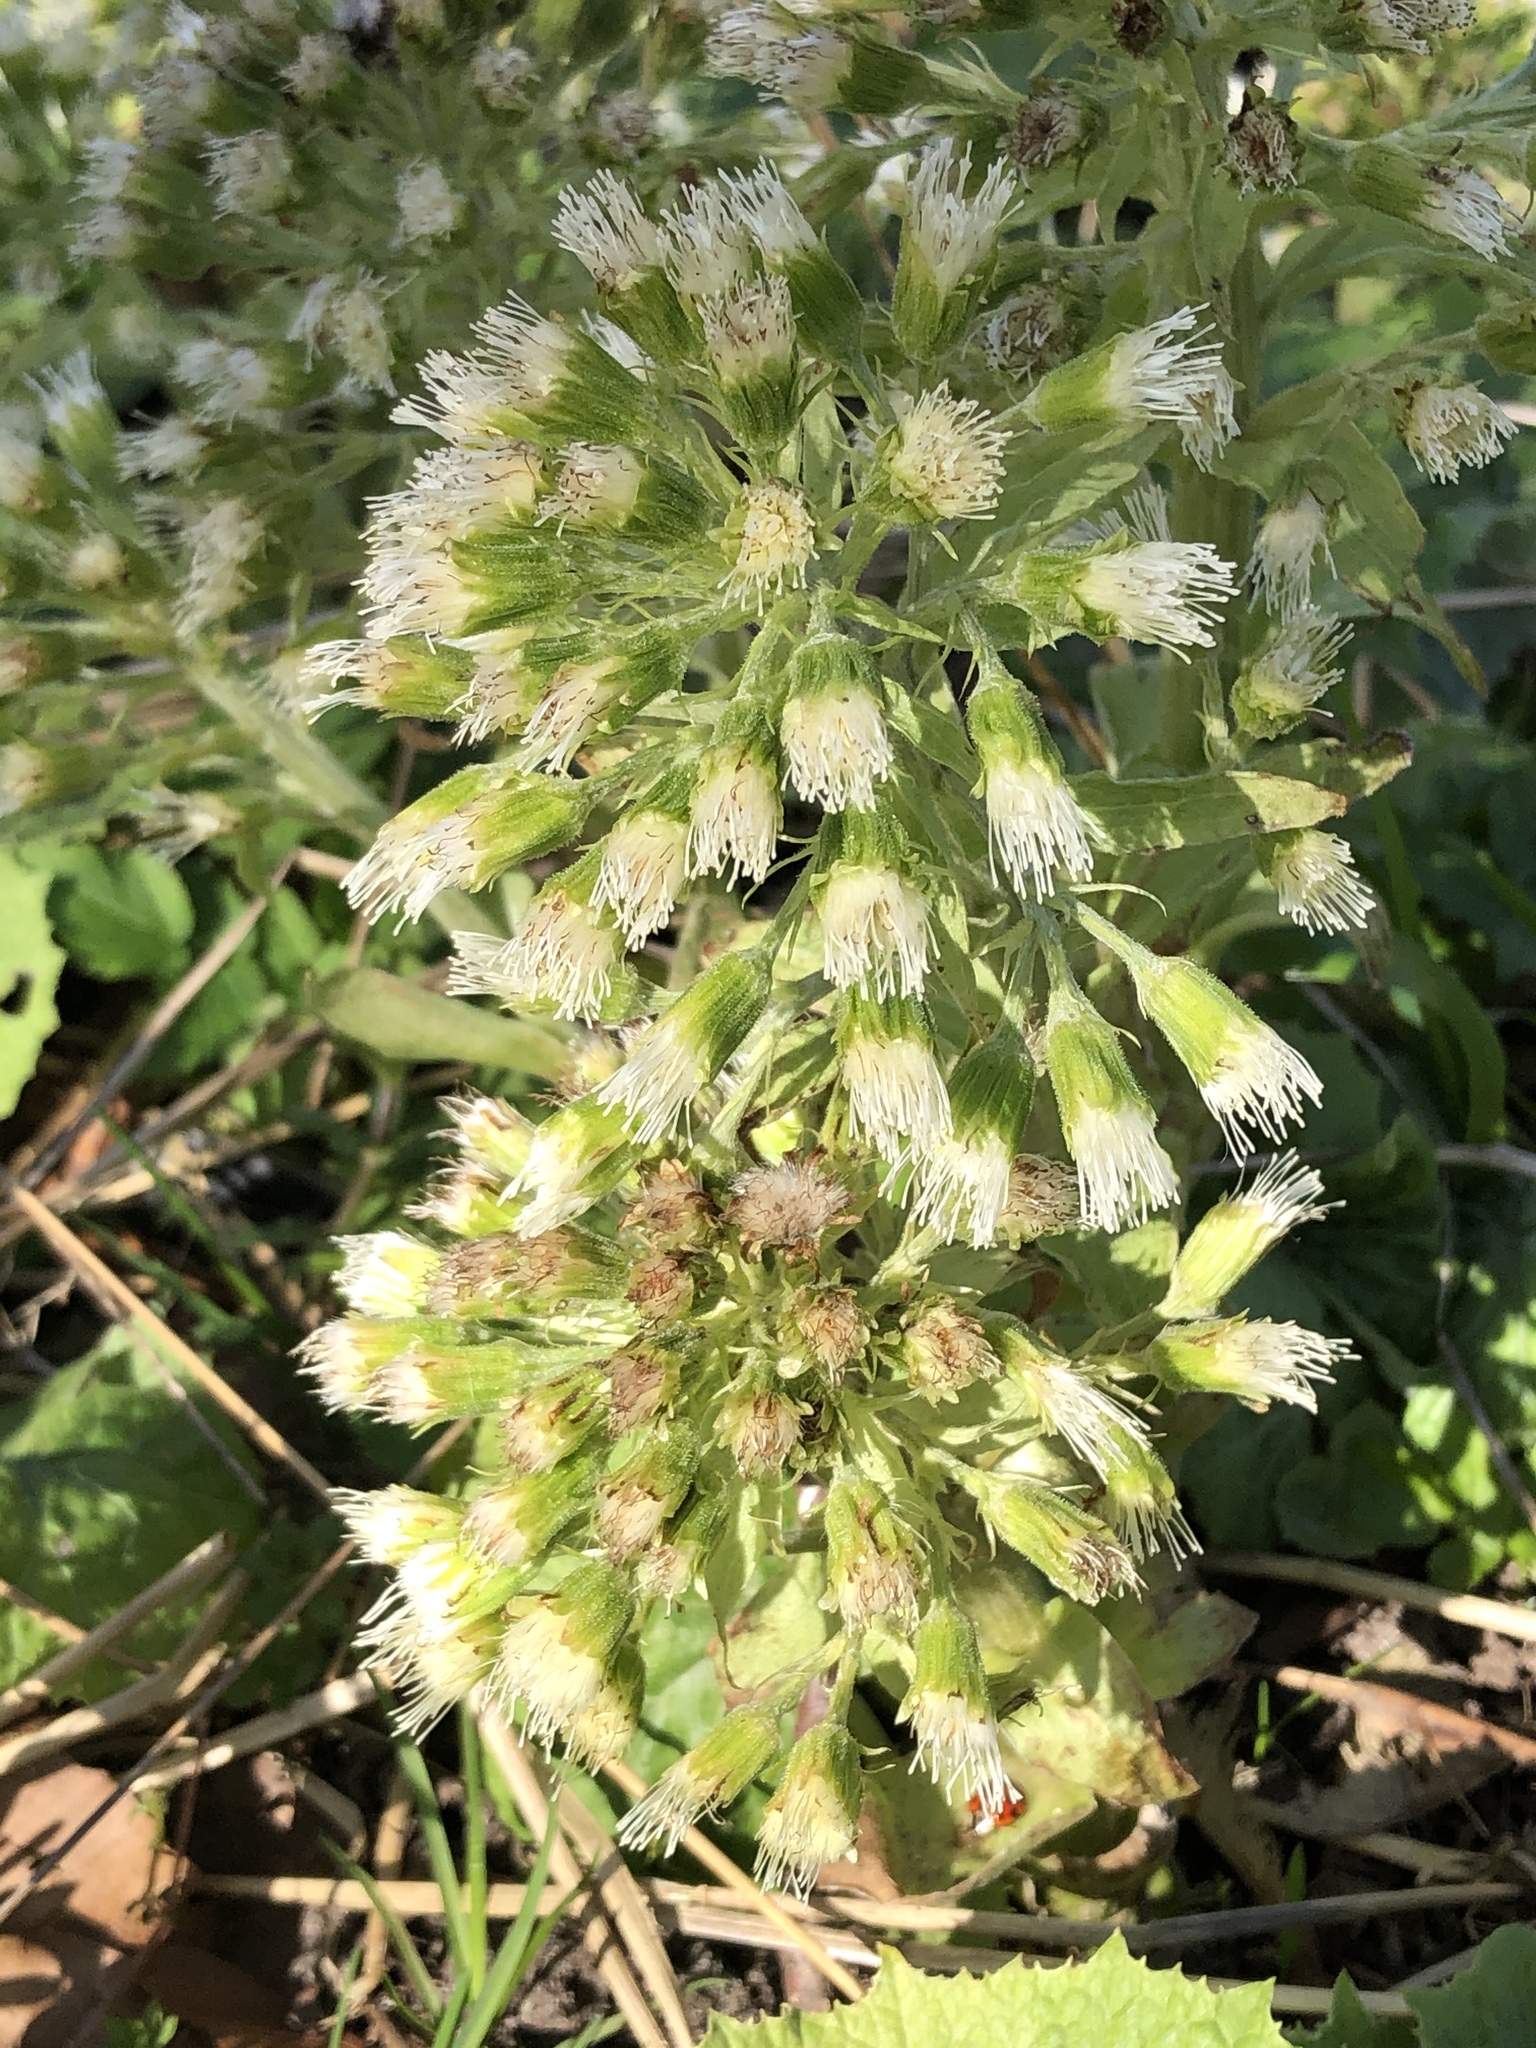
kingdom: Plantae
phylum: Tracheophyta
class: Magnoliopsida
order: Asterales
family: Asteraceae
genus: Petasites
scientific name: Petasites albus
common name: White butterbur
